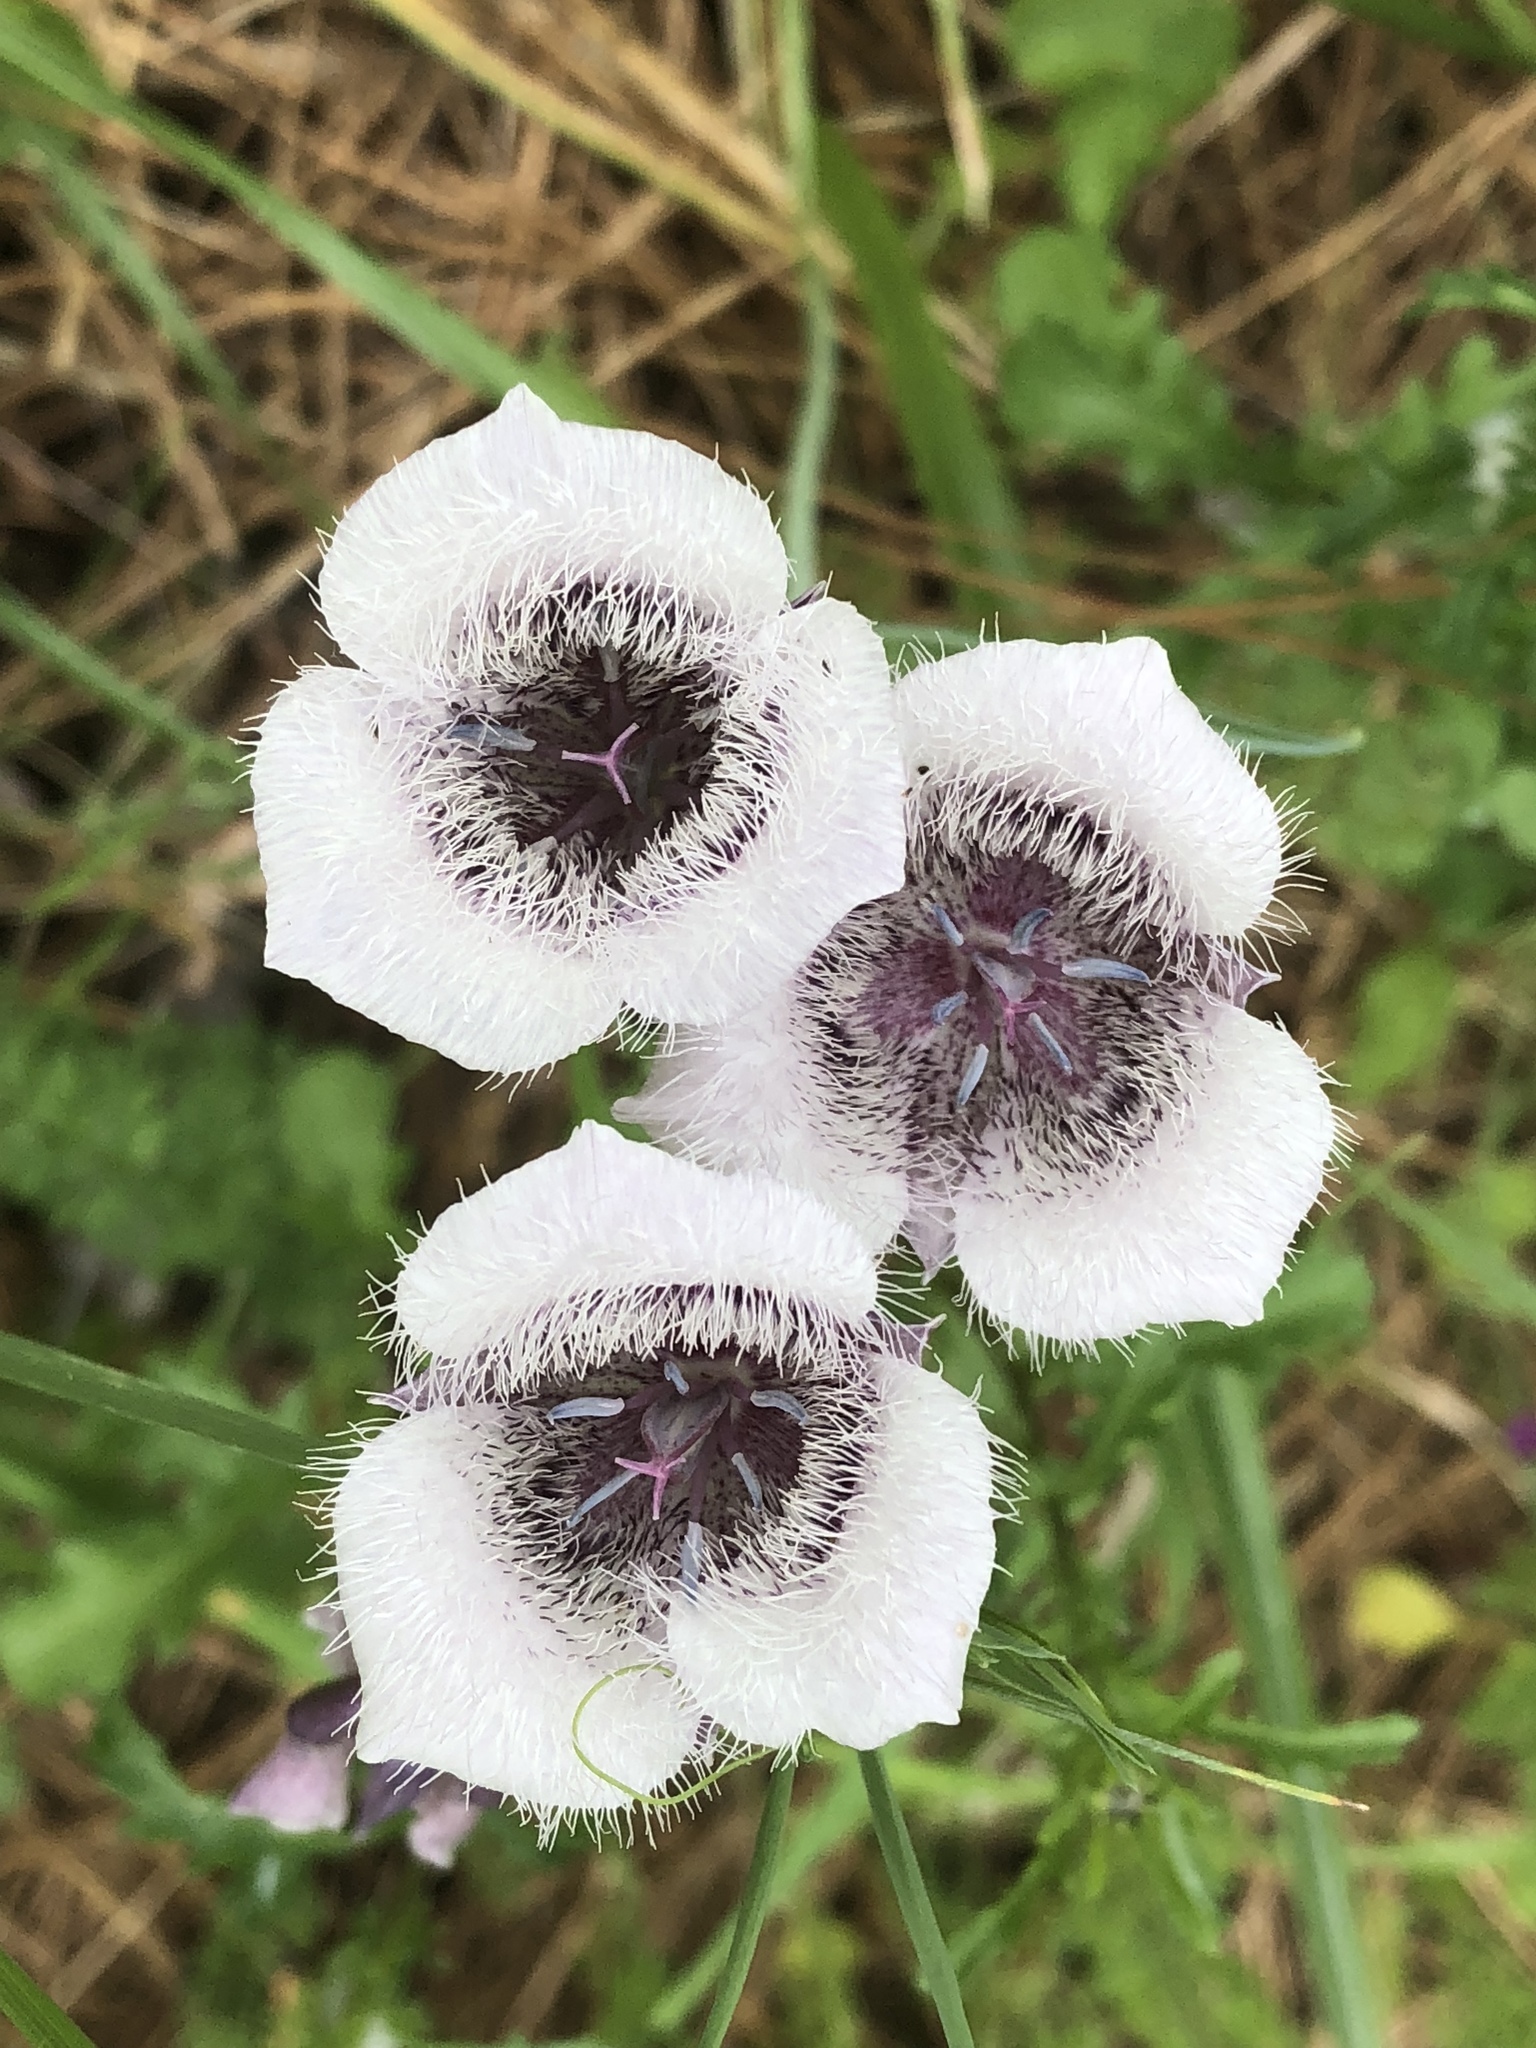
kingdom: Plantae
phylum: Tracheophyta
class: Liliopsida
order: Liliales
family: Liliaceae
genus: Calochortus
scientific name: Calochortus tolmiei
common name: Pussy-ears
